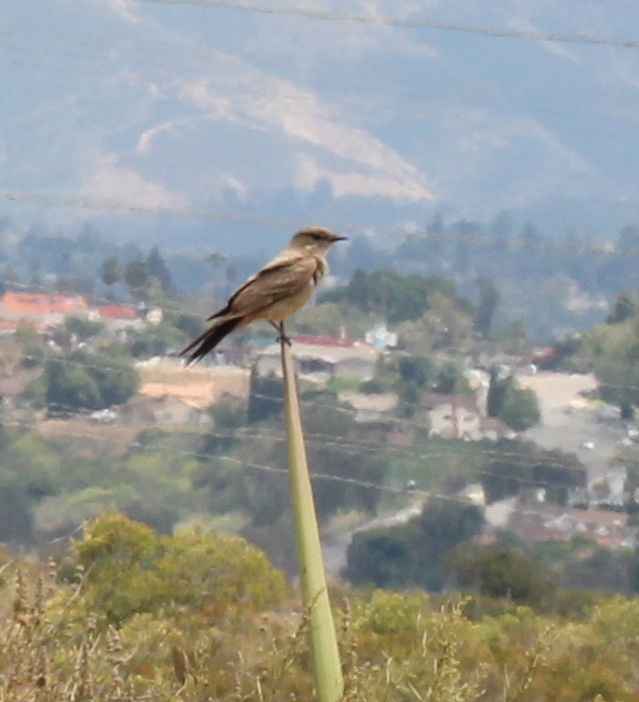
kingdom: Animalia
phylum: Chordata
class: Aves
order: Passeriformes
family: Tyrannidae
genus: Sayornis
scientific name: Sayornis saya
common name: Say's phoebe
